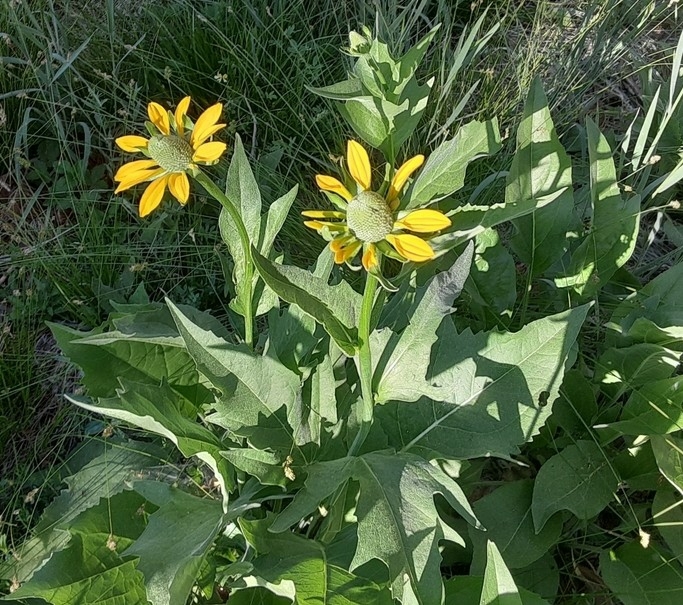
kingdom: Plantae
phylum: Tracheophyta
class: Magnoliopsida
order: Asterales
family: Asteraceae
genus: Rudbeckia
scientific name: Rudbeckia californica
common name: California coneflower
